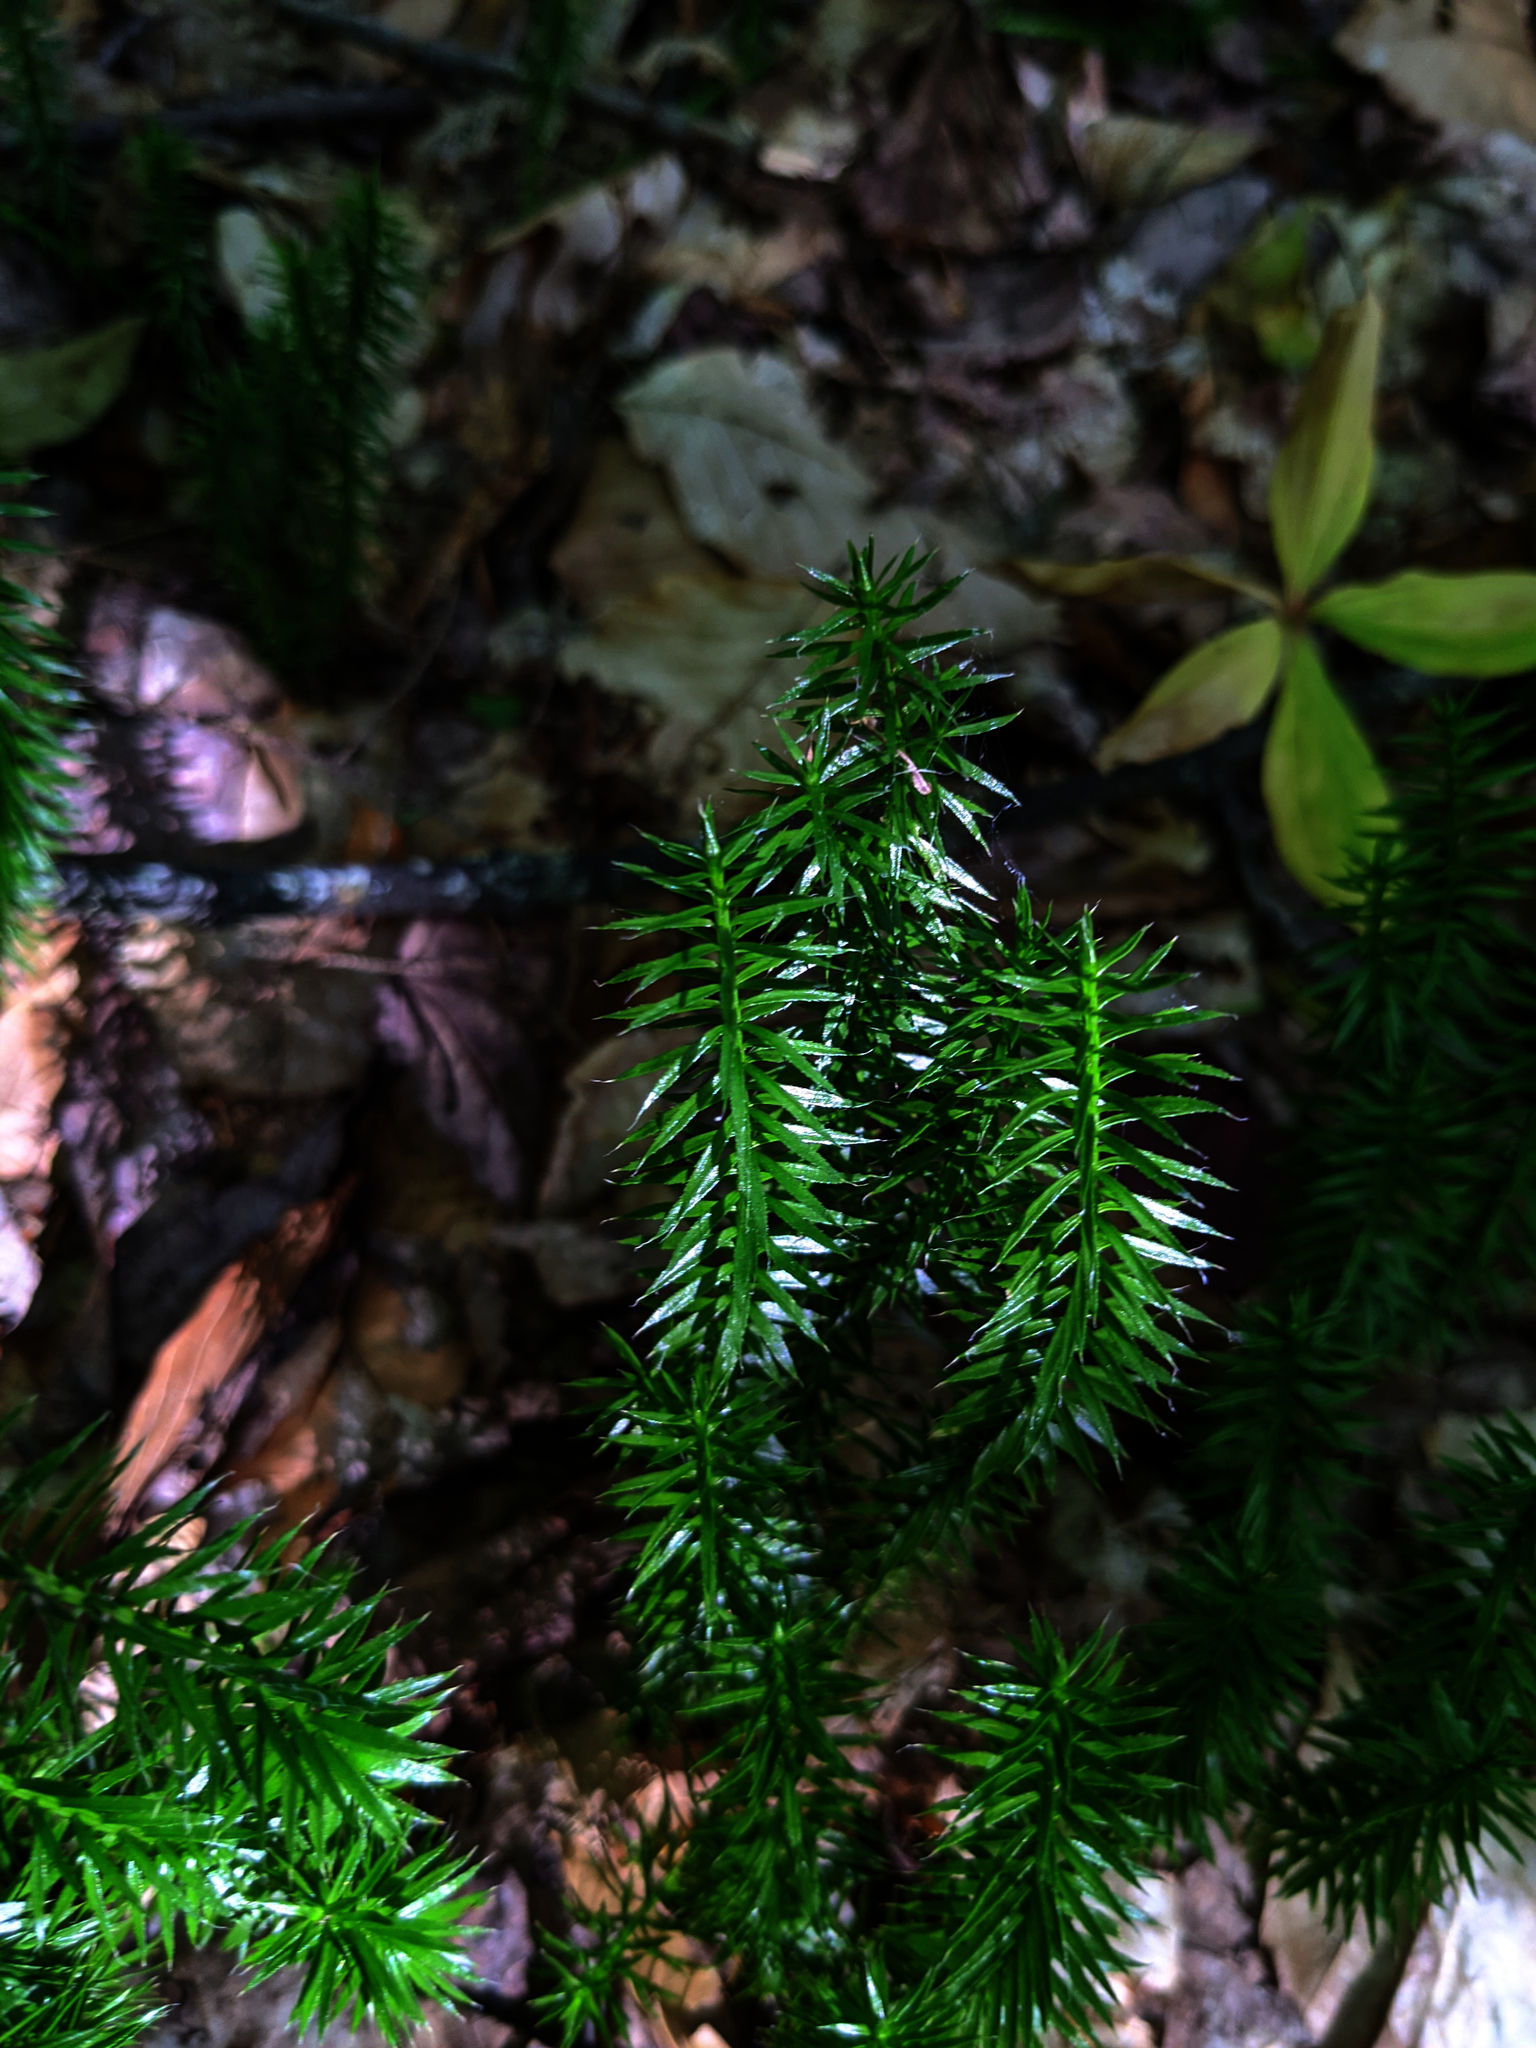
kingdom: Plantae
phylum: Tracheophyta
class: Lycopodiopsida
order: Lycopodiales
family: Lycopodiaceae
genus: Spinulum
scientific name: Spinulum annotinum
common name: Interrupted club-moss
